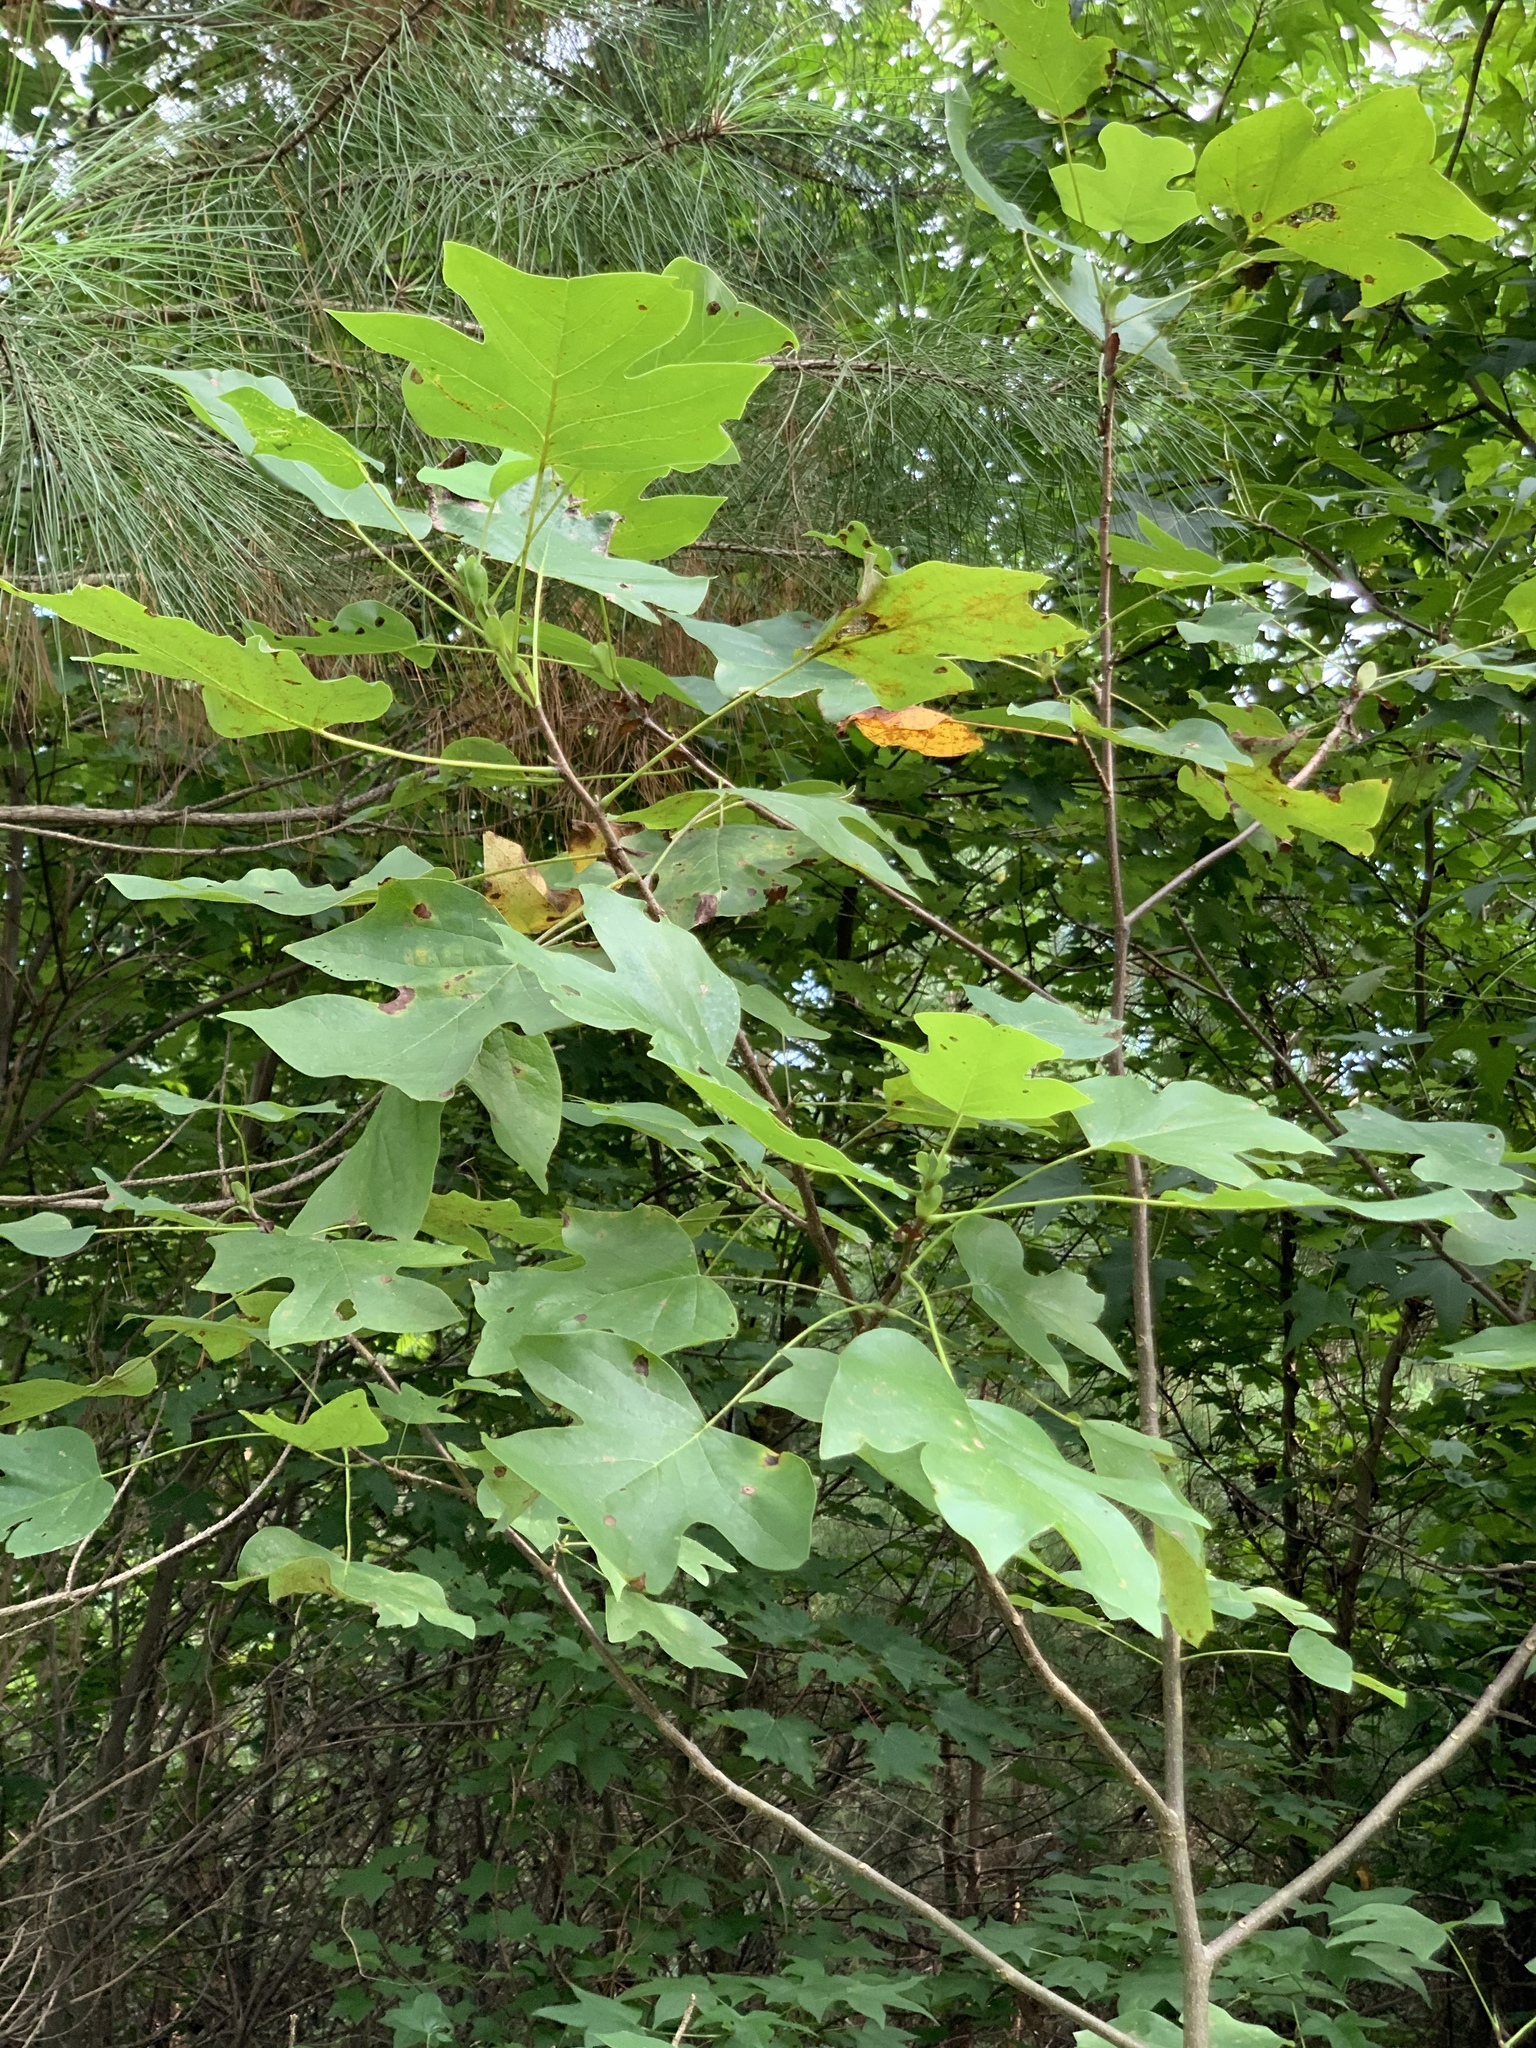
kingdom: Plantae
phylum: Tracheophyta
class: Magnoliopsida
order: Magnoliales
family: Magnoliaceae
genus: Liriodendron
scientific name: Liriodendron tulipifera
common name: Tulip tree
